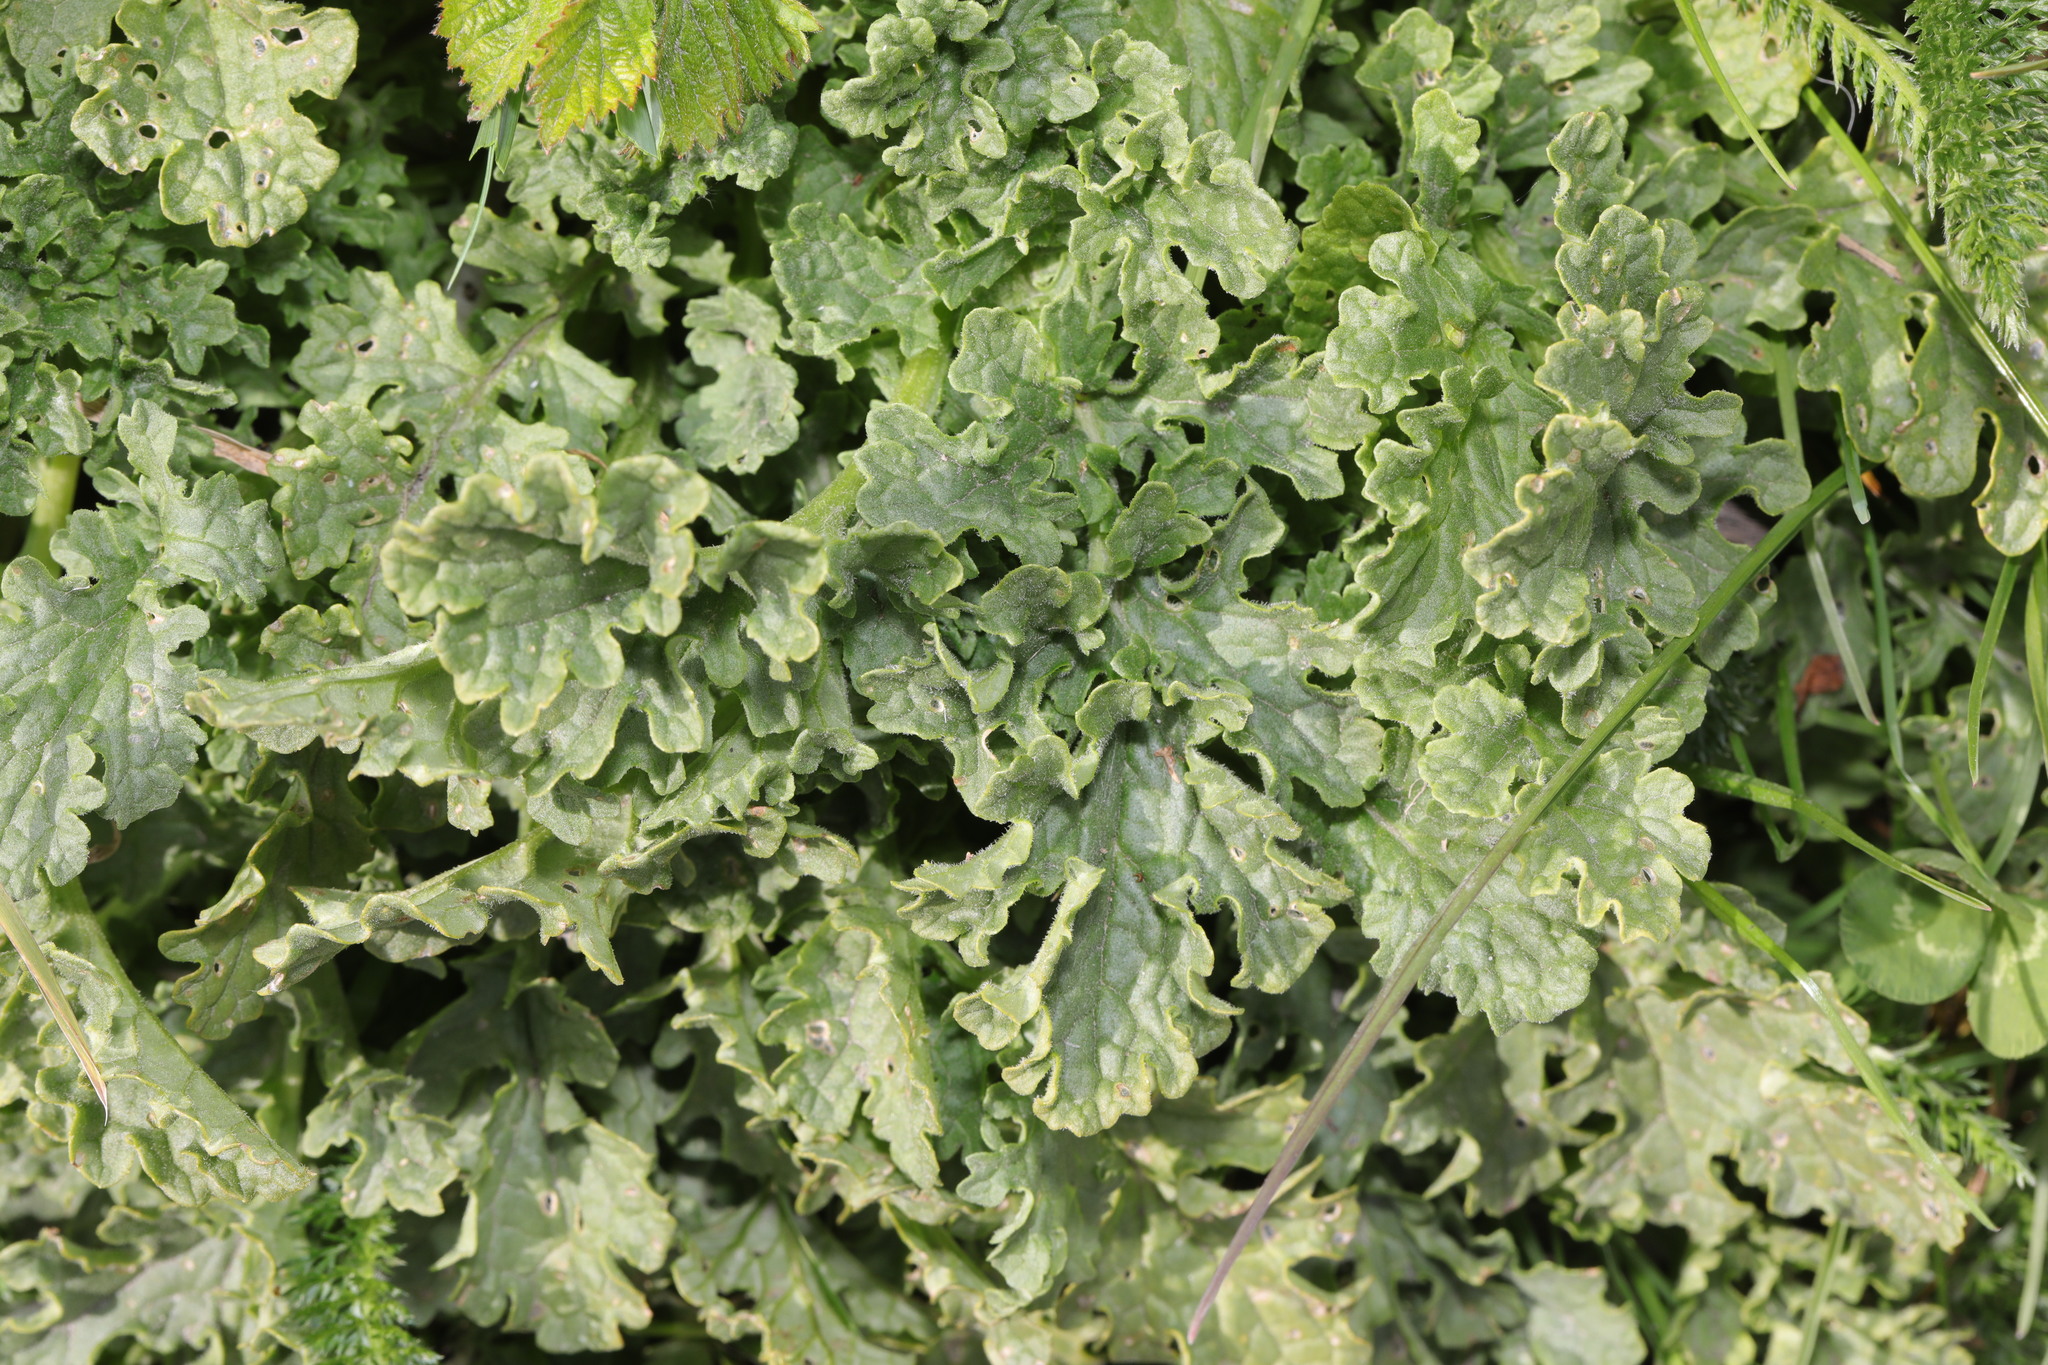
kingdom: Plantae
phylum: Tracheophyta
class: Magnoliopsida
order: Asterales
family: Asteraceae
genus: Jacobaea
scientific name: Jacobaea vulgaris
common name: Stinking willie
